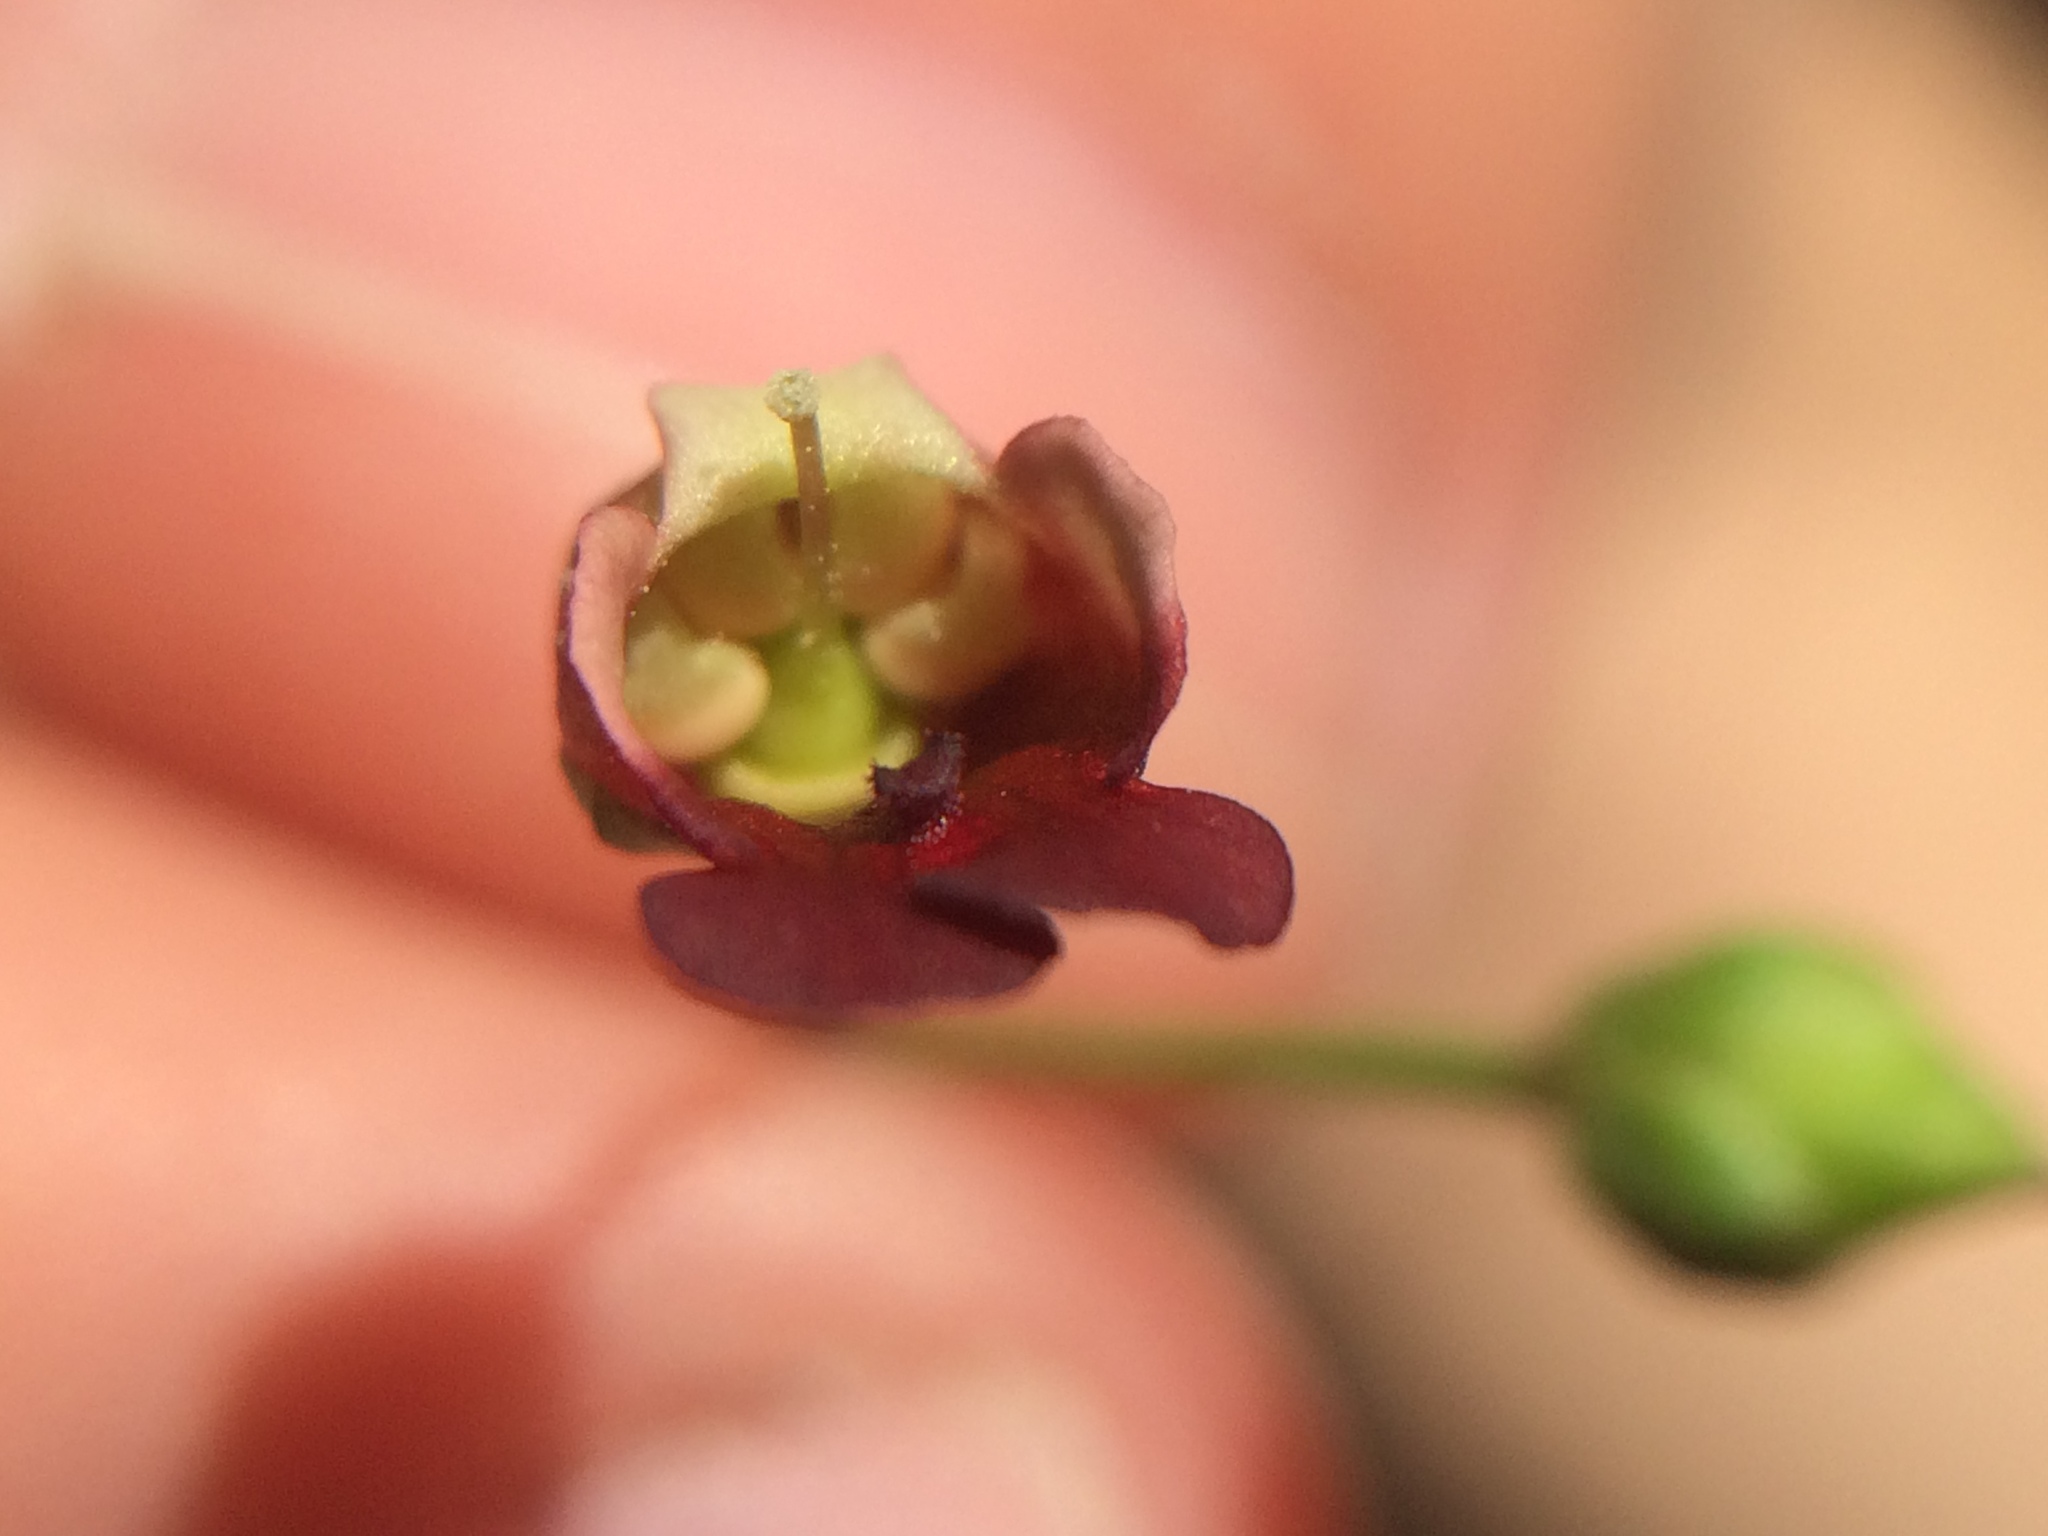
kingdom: Plantae
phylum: Tracheophyta
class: Magnoliopsida
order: Lamiales
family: Scrophulariaceae
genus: Scrophularia
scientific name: Scrophularia californica
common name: California figwort
